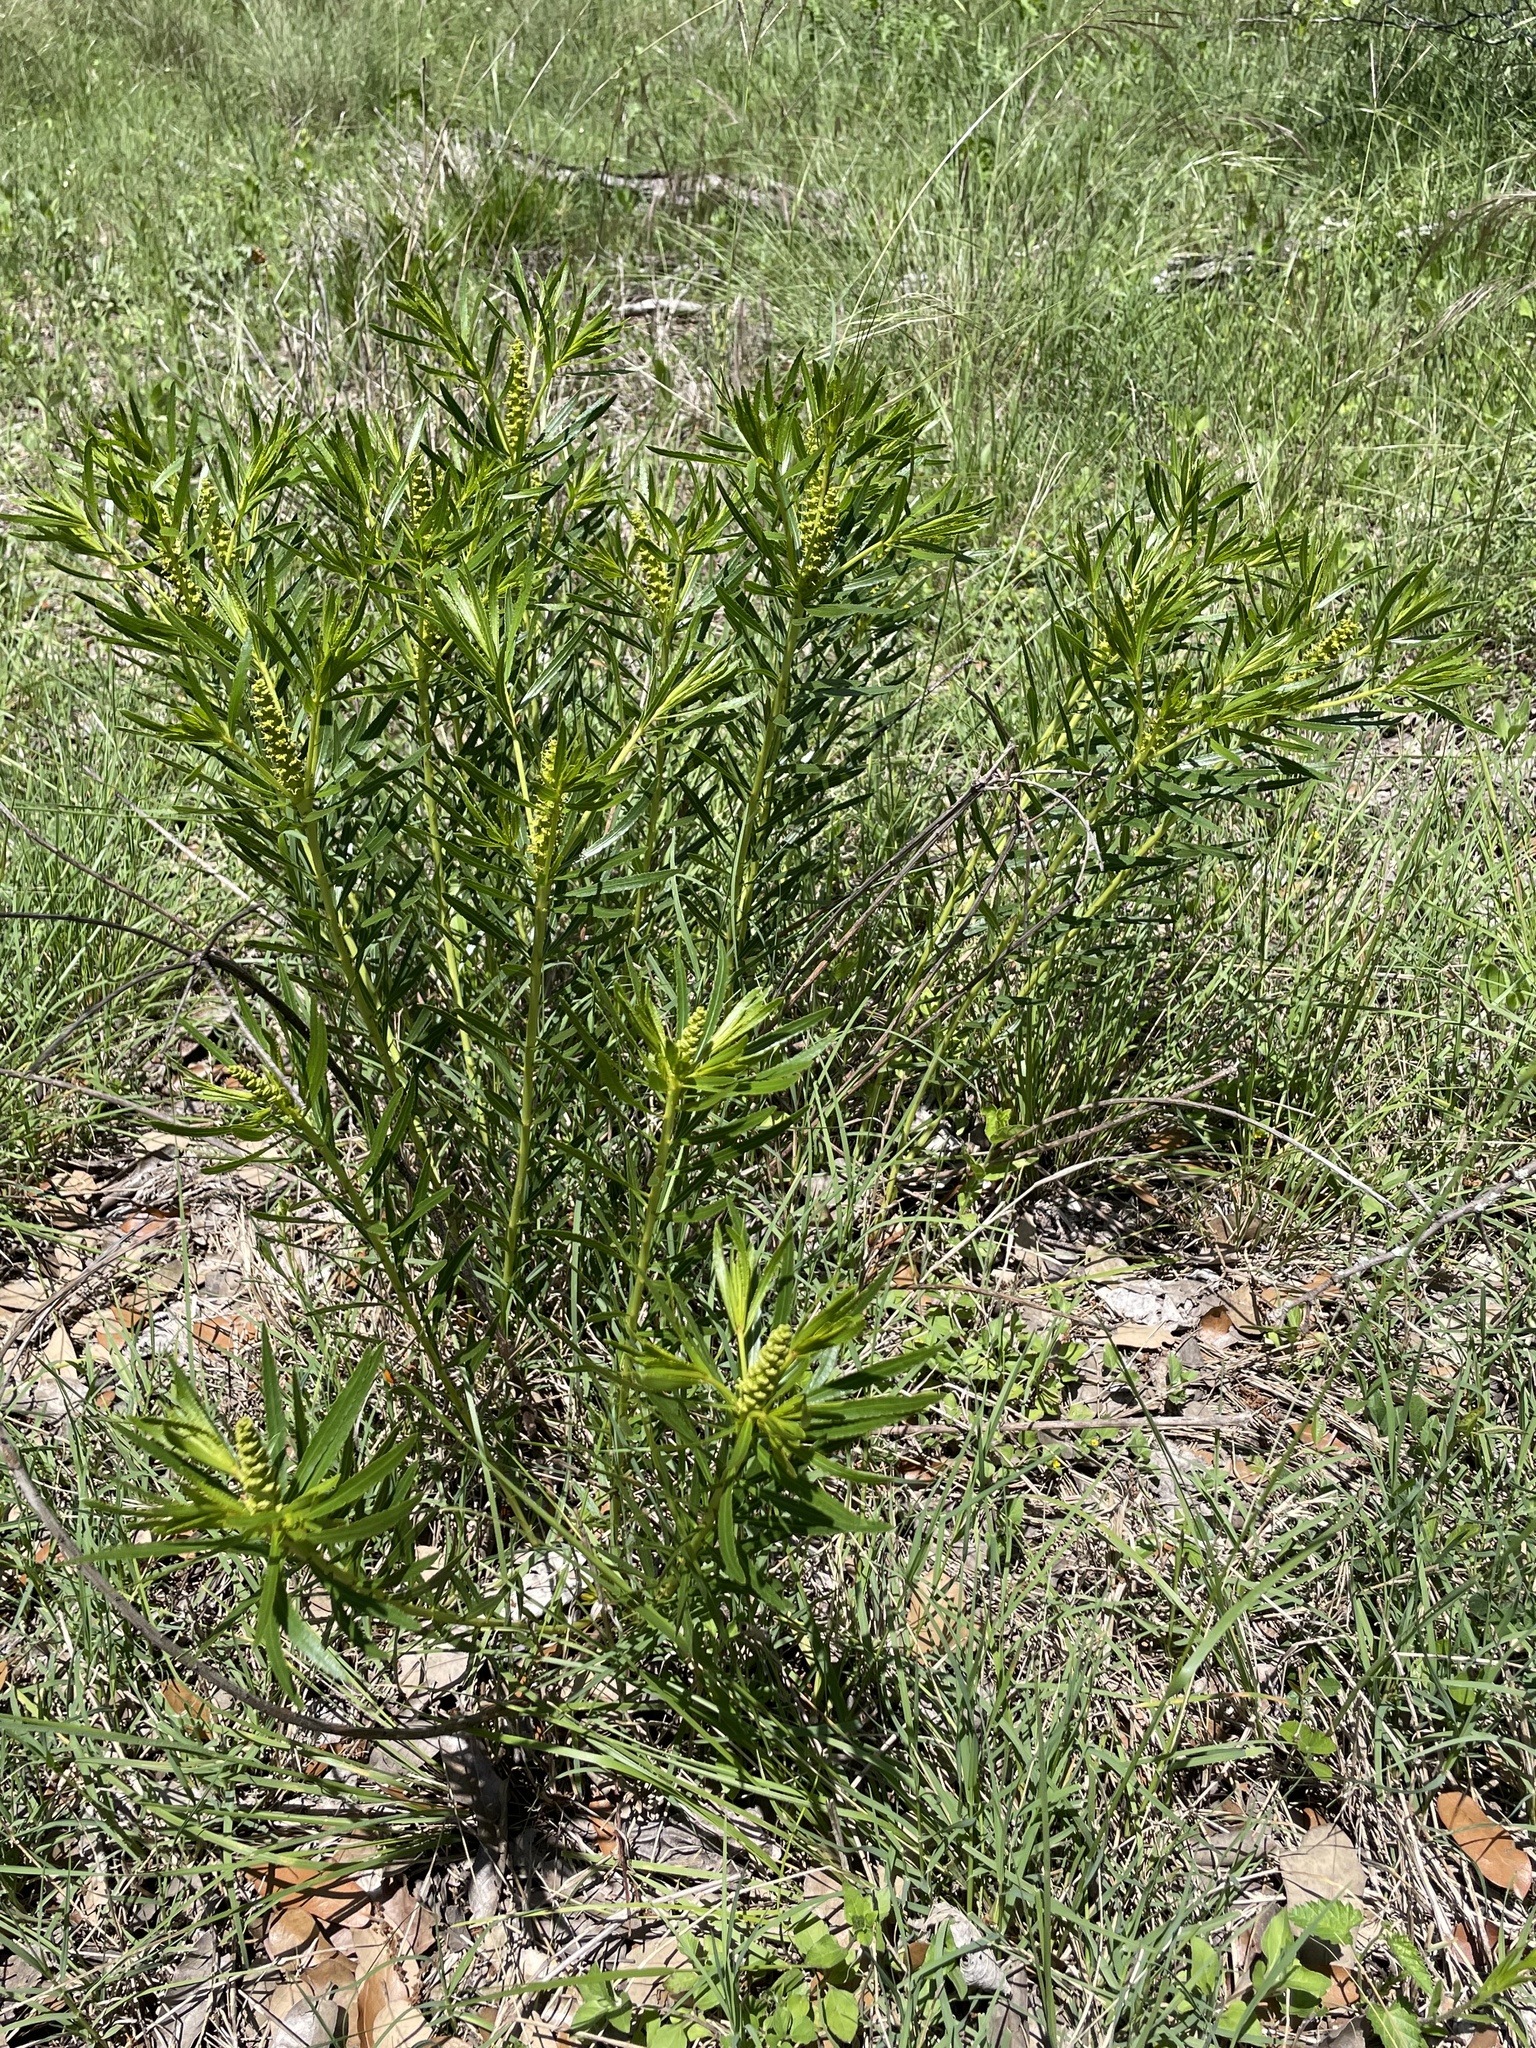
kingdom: Plantae
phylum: Tracheophyta
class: Magnoliopsida
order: Malpighiales
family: Euphorbiaceae
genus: Stillingia
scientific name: Stillingia texana
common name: Texas stillingia
